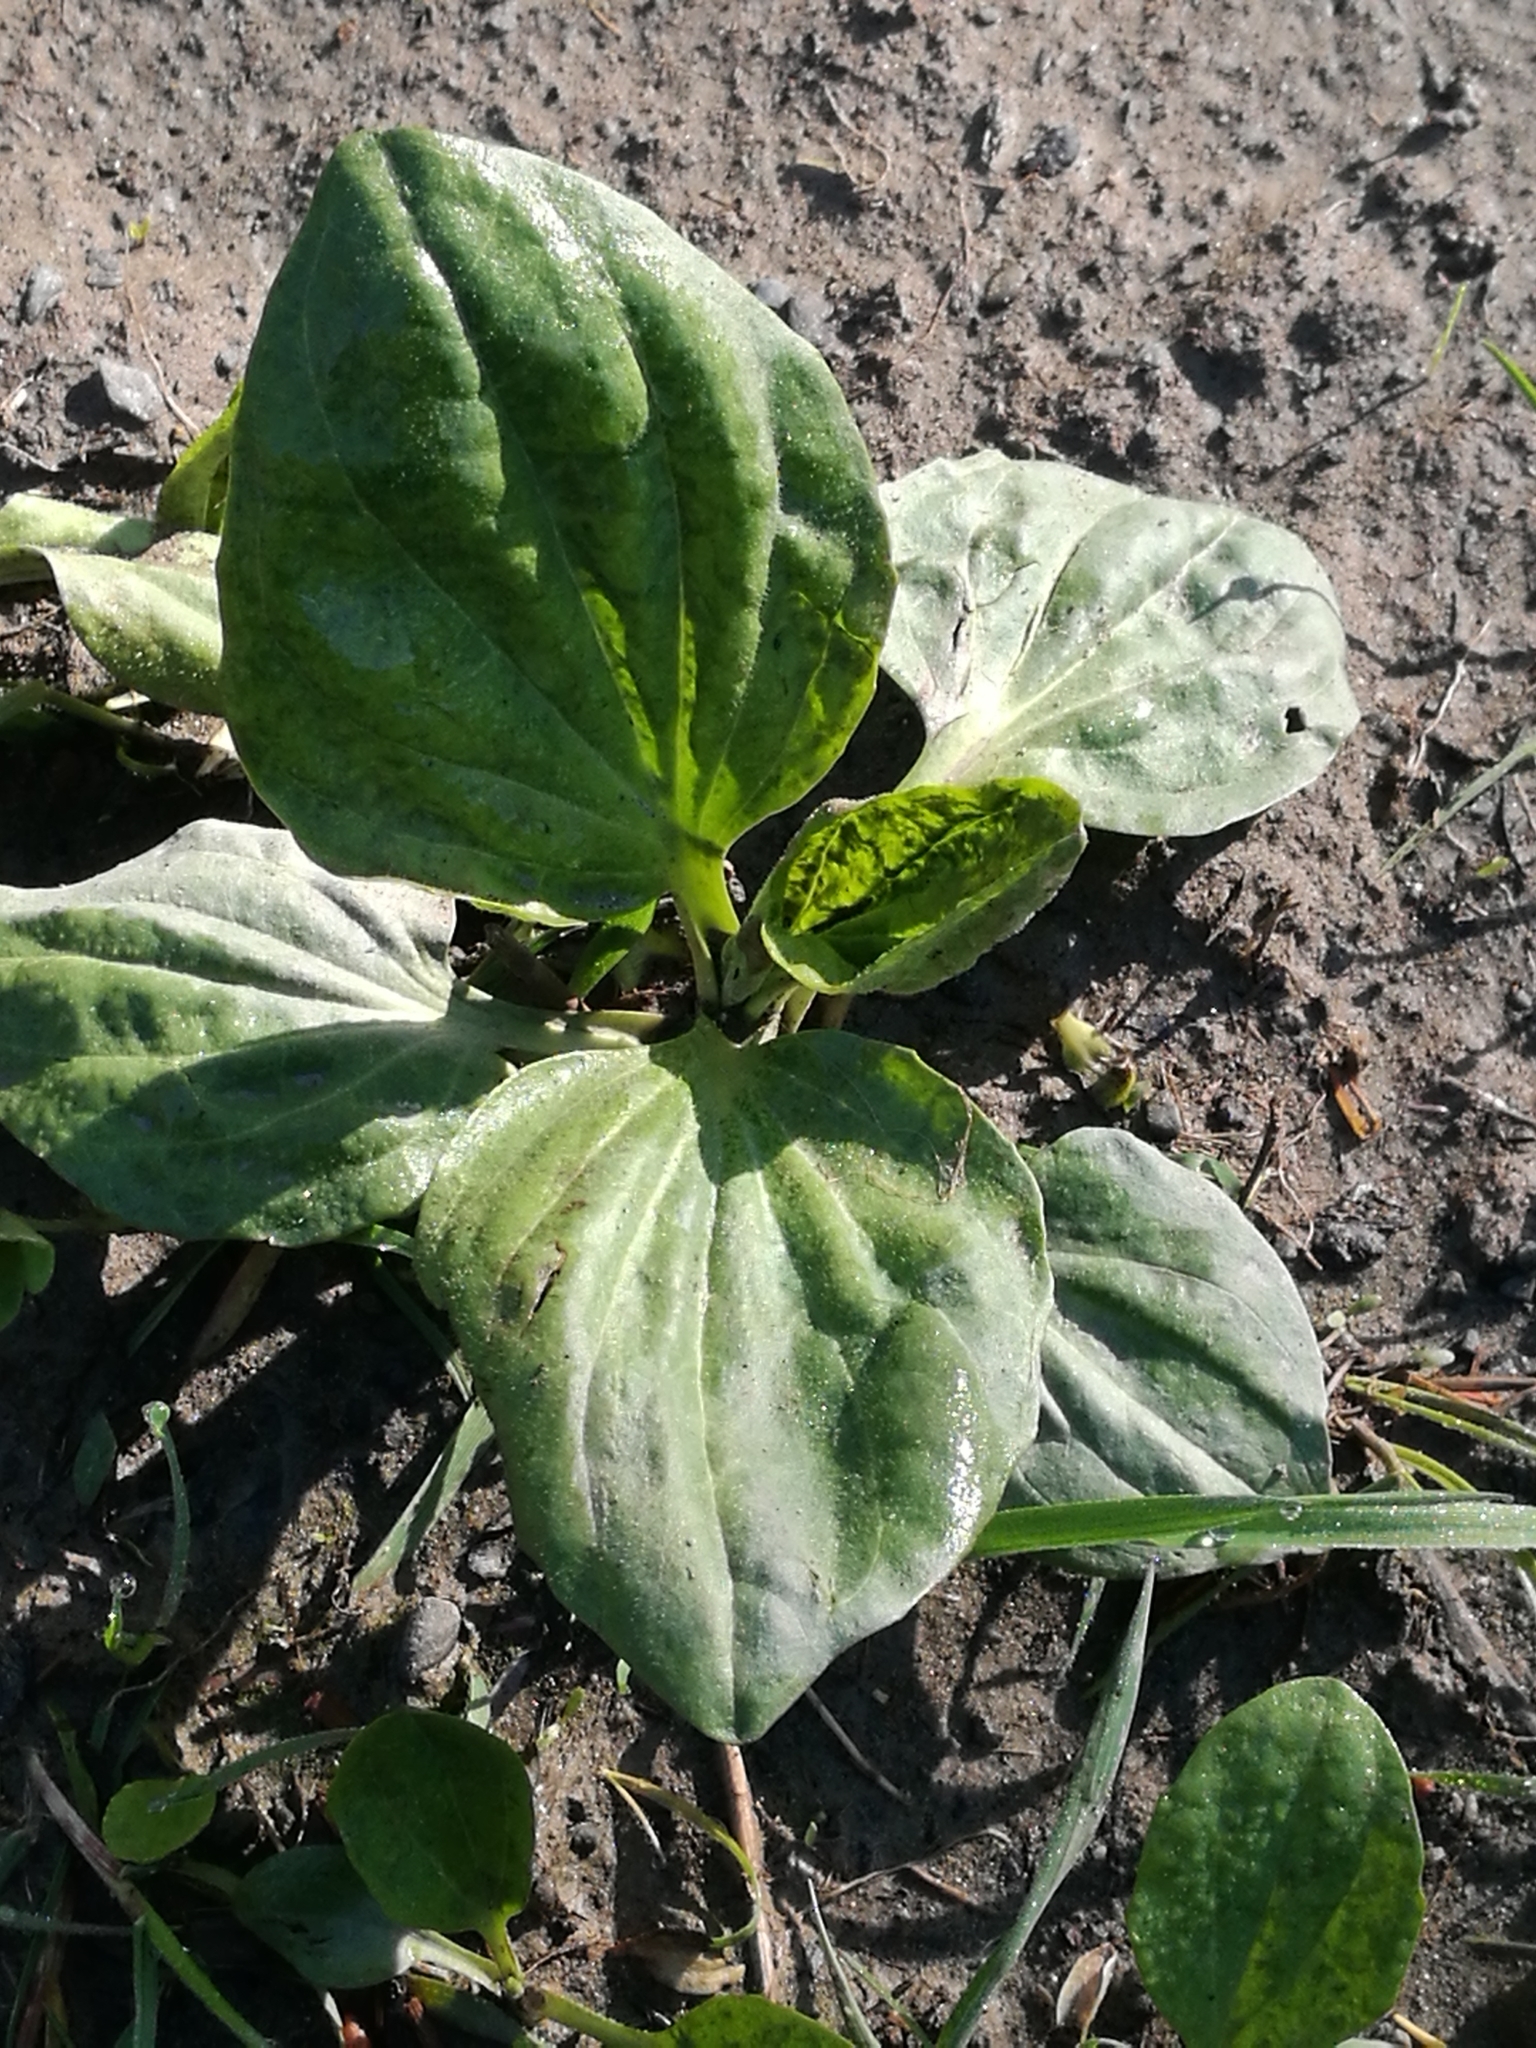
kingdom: Plantae
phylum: Tracheophyta
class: Magnoliopsida
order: Lamiales
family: Plantaginaceae
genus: Plantago
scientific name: Plantago major
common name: Common plantain
